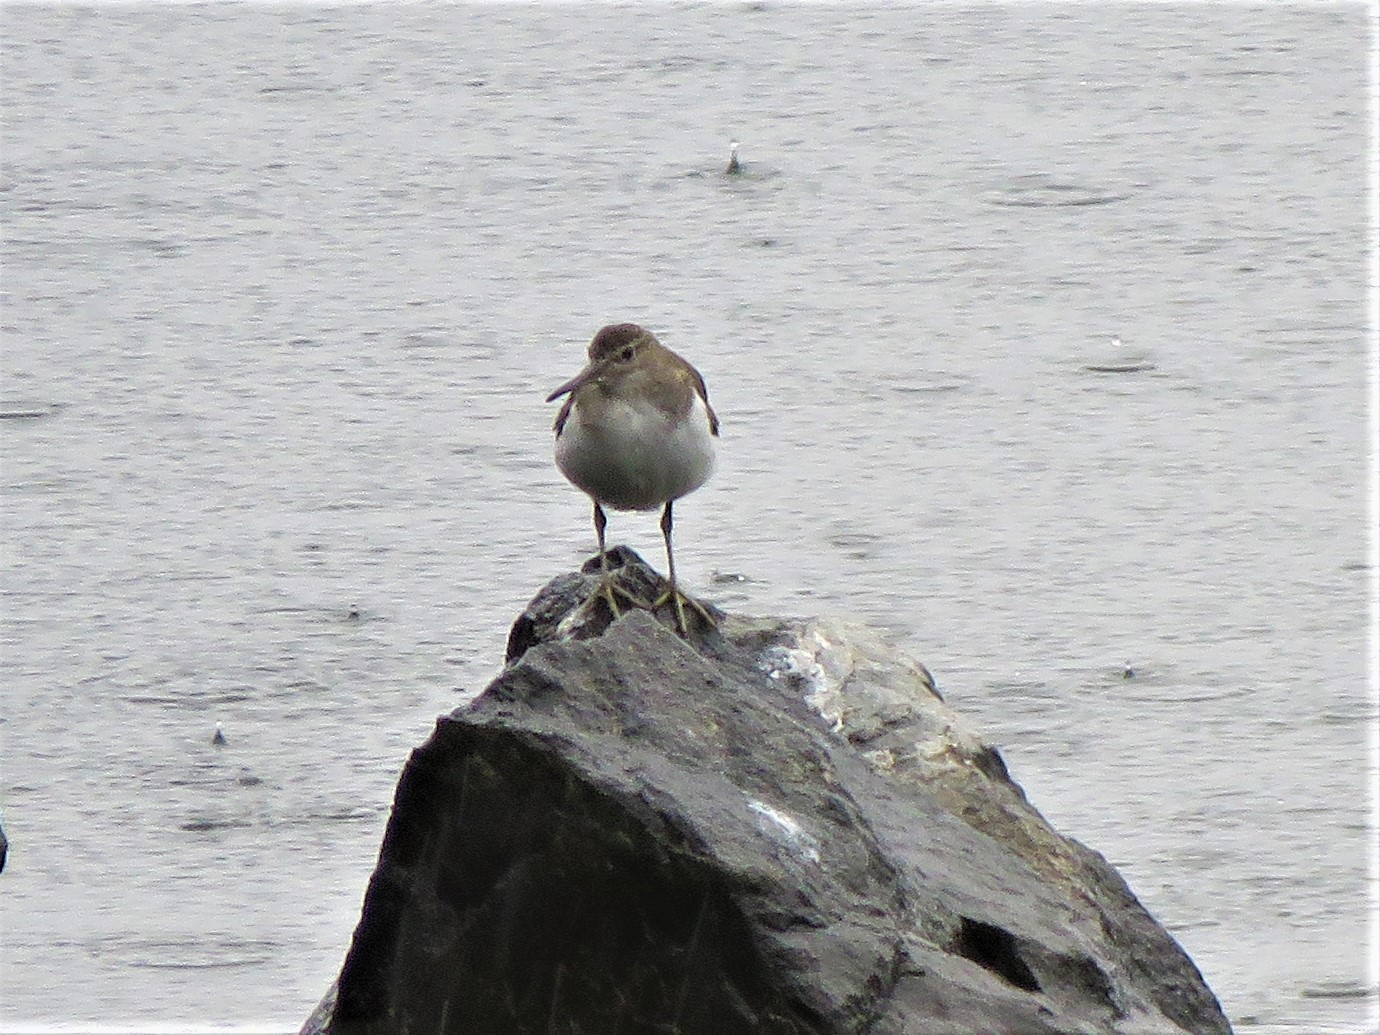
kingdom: Animalia
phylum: Chordata
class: Aves
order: Charadriiformes
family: Scolopacidae
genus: Actitis
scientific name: Actitis hypoleucos
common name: Common sandpiper
